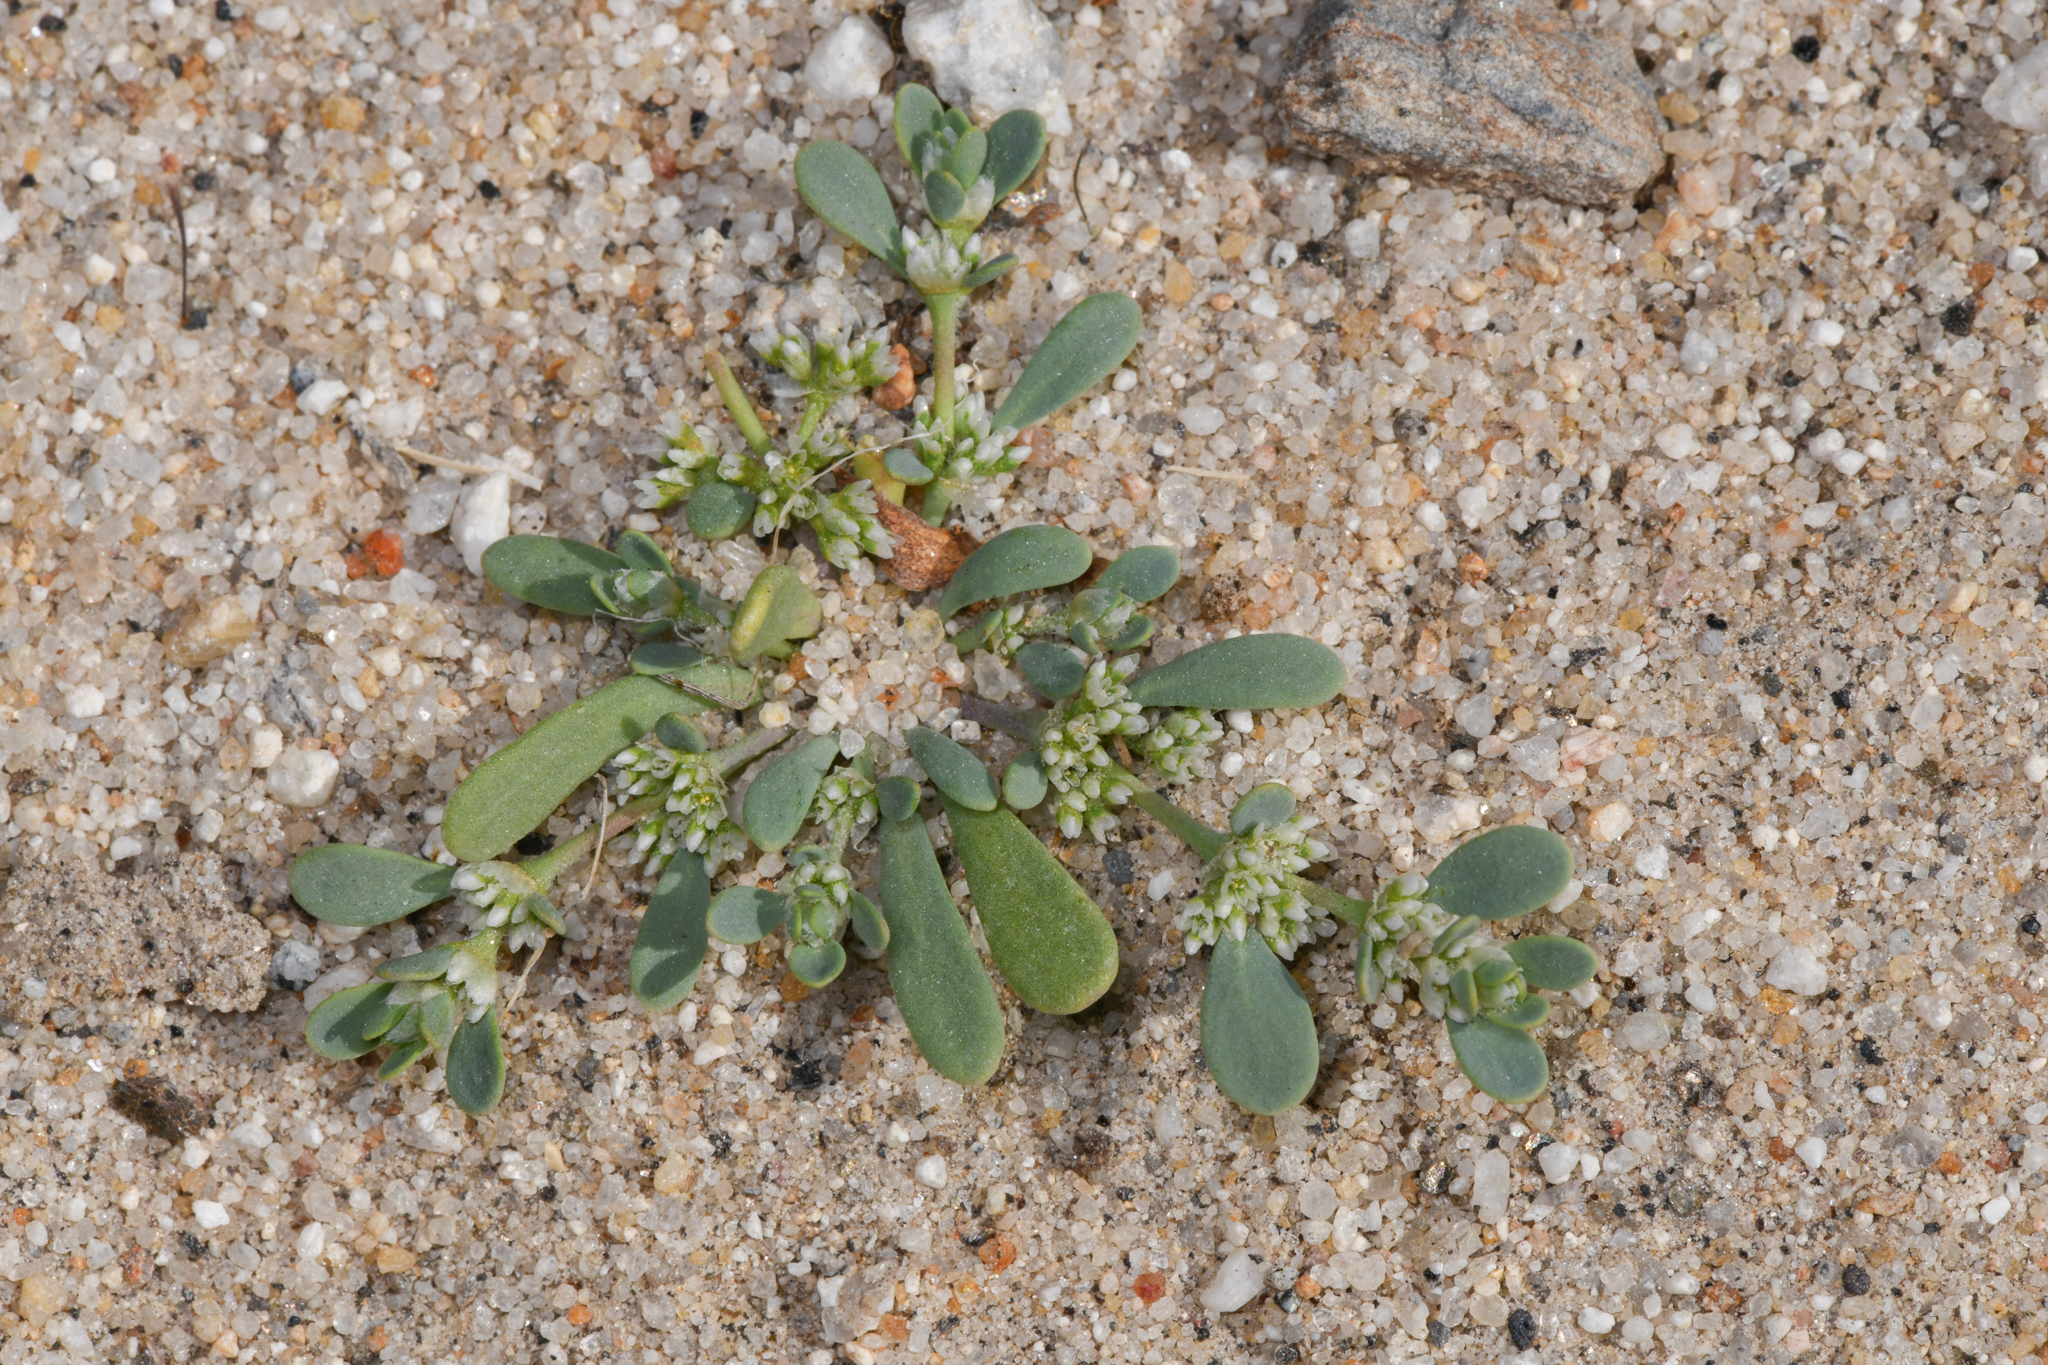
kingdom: Plantae
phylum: Tracheophyta
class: Magnoliopsida
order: Caryophyllales
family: Caryophyllaceae
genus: Achyronychia
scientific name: Achyronychia cooperi
